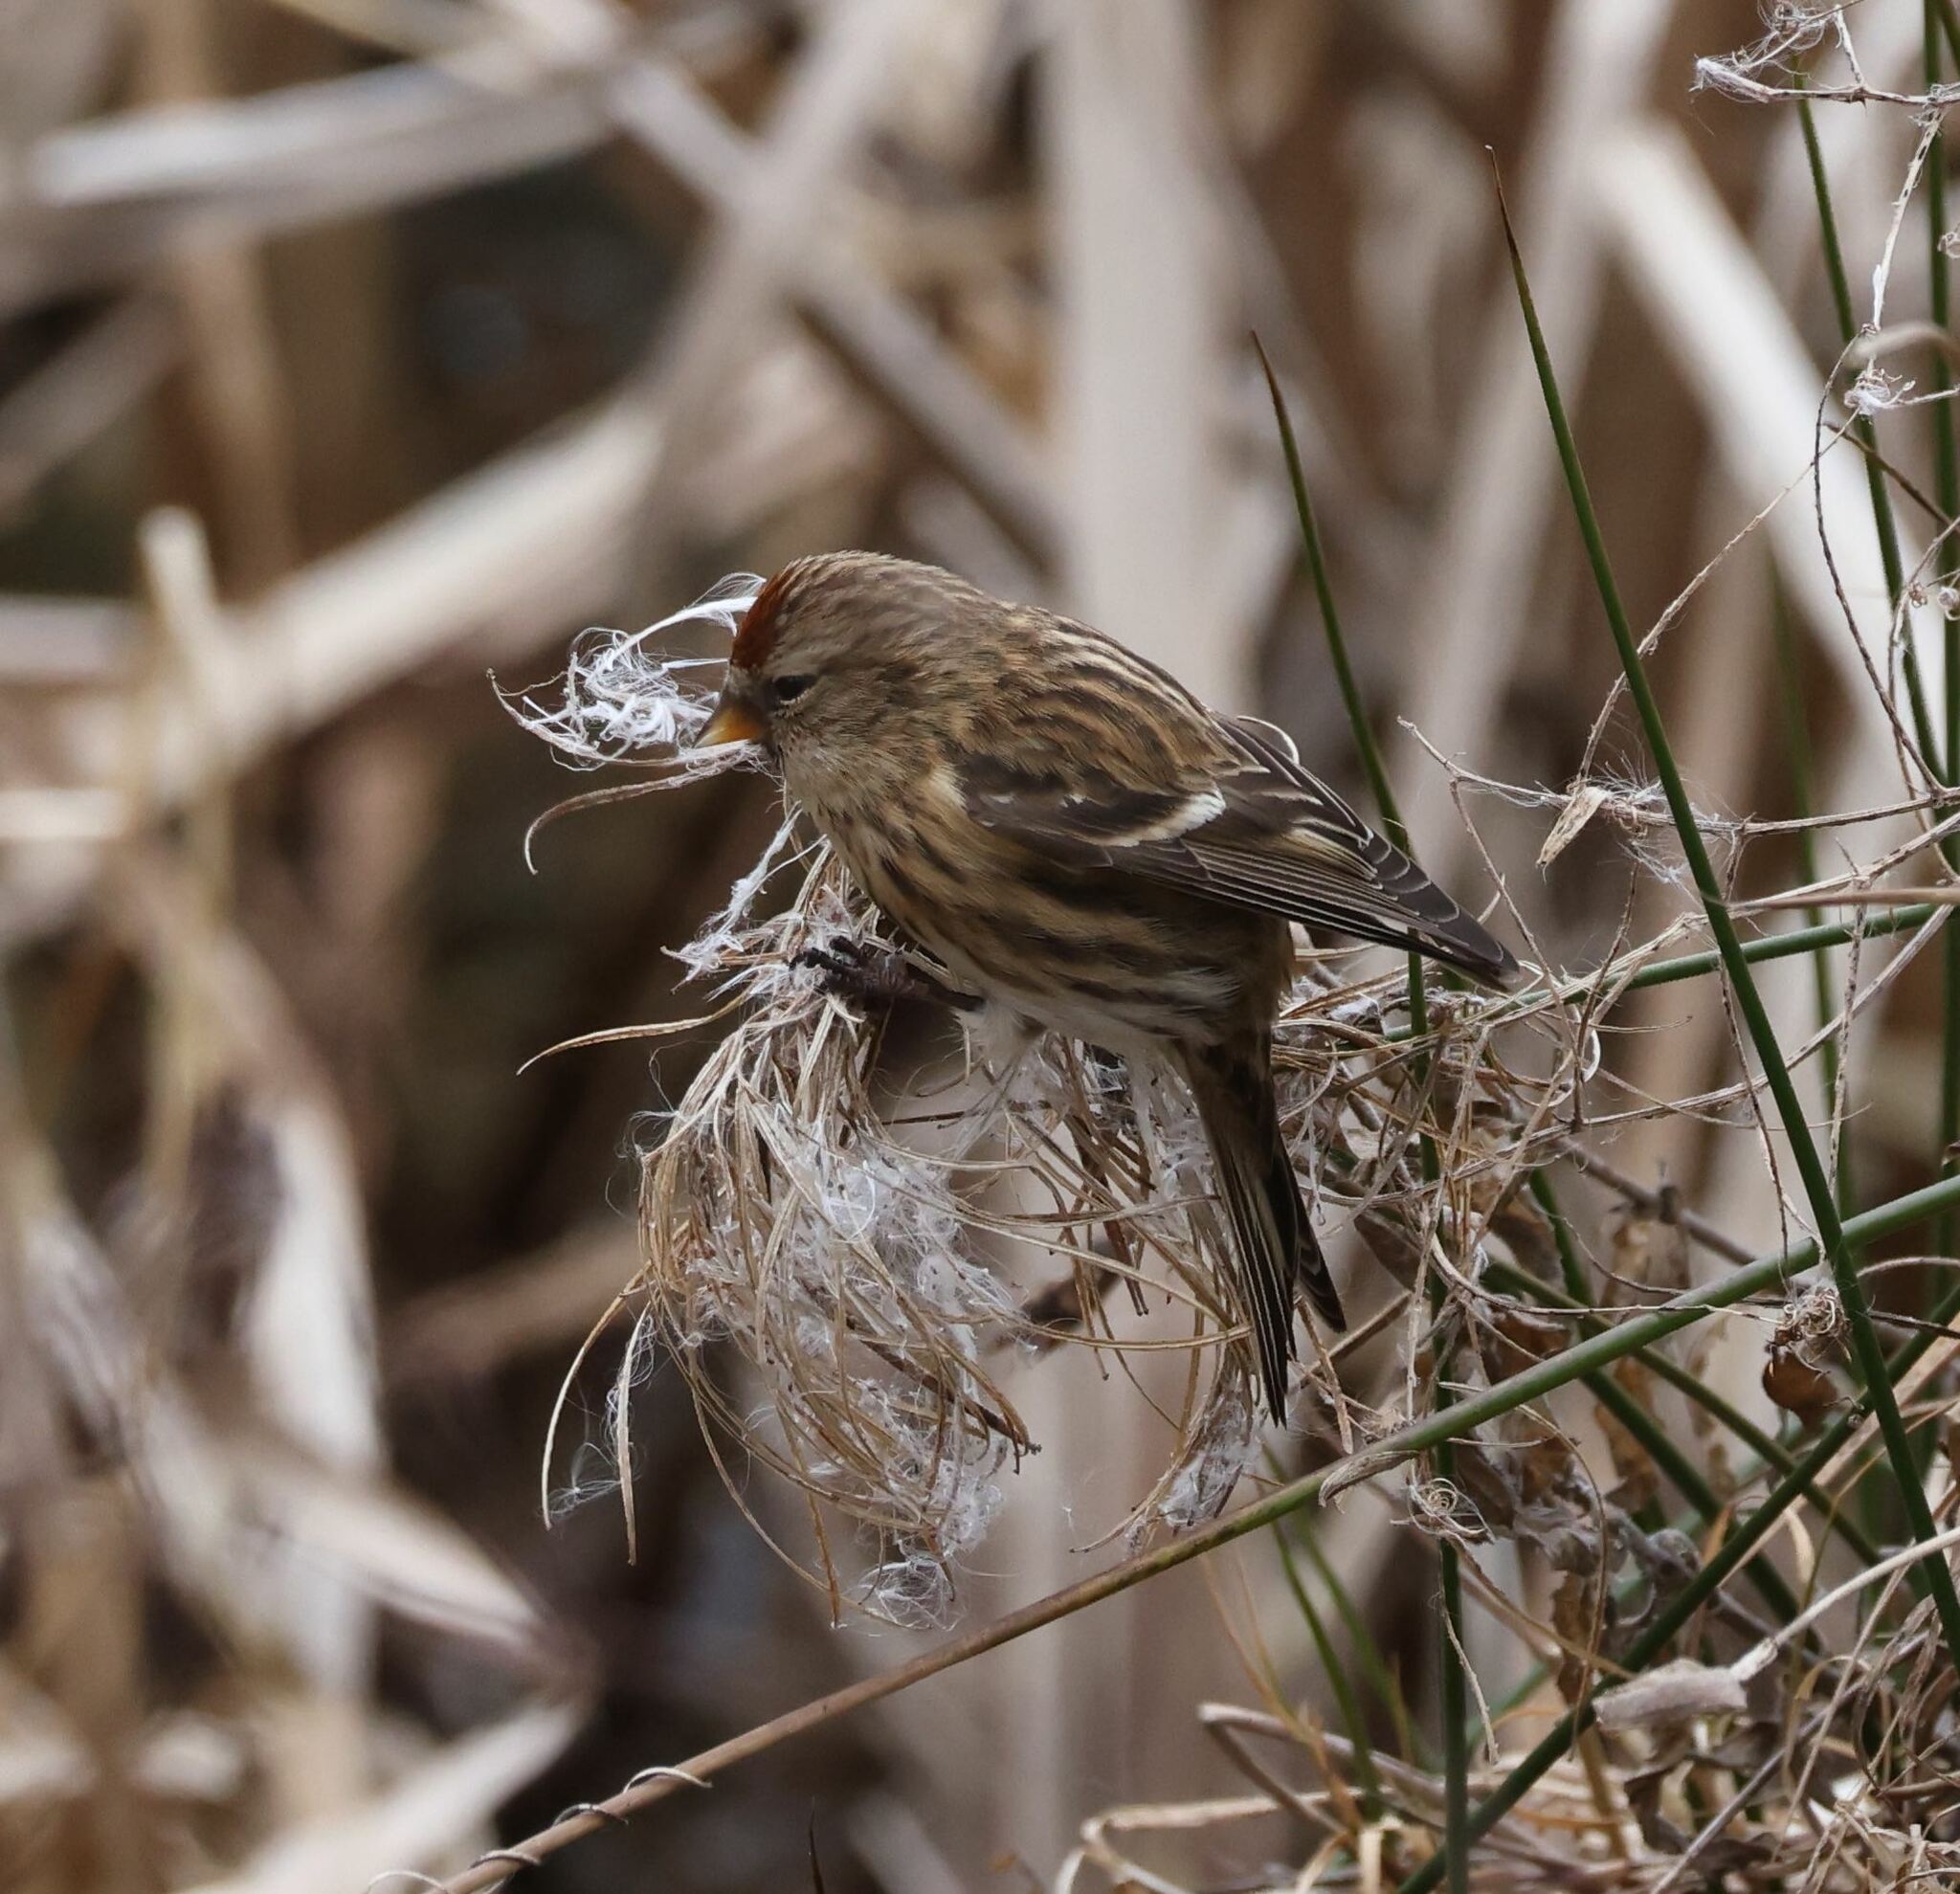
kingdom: Animalia
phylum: Chordata
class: Aves
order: Passeriformes
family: Fringillidae
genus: Acanthis
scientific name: Acanthis flammea
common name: Common redpoll
